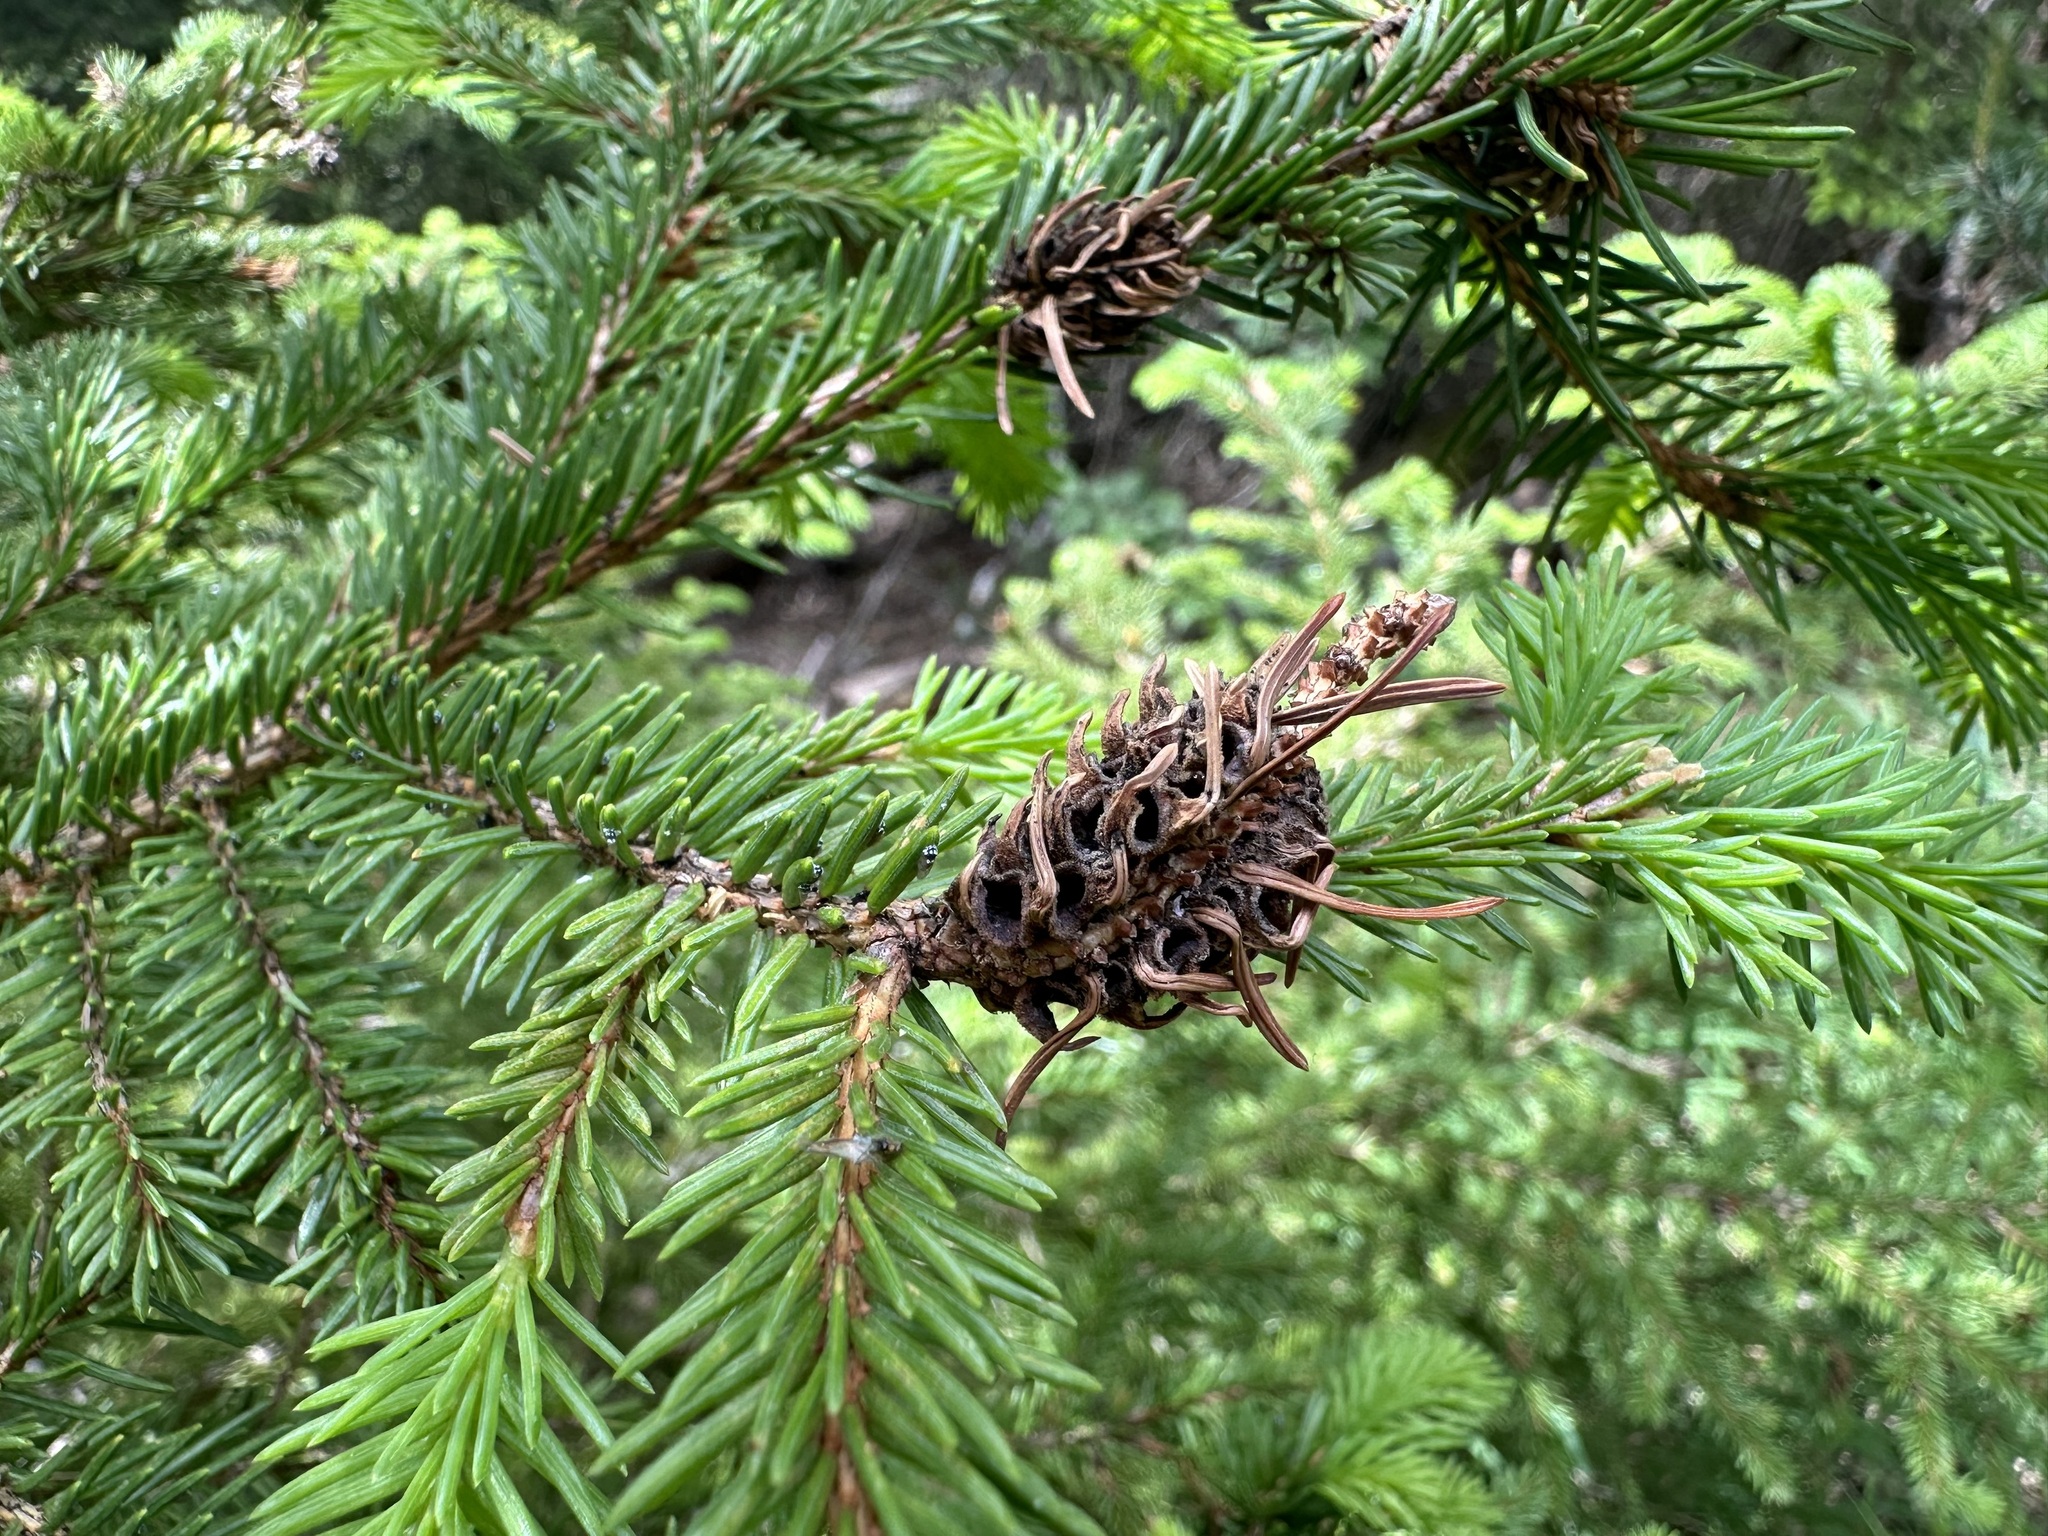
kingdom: Animalia
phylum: Arthropoda
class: Insecta
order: Hemiptera
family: Adelgidae
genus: Adelges
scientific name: Adelges abietis
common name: Eastern spruce gall adelgid
